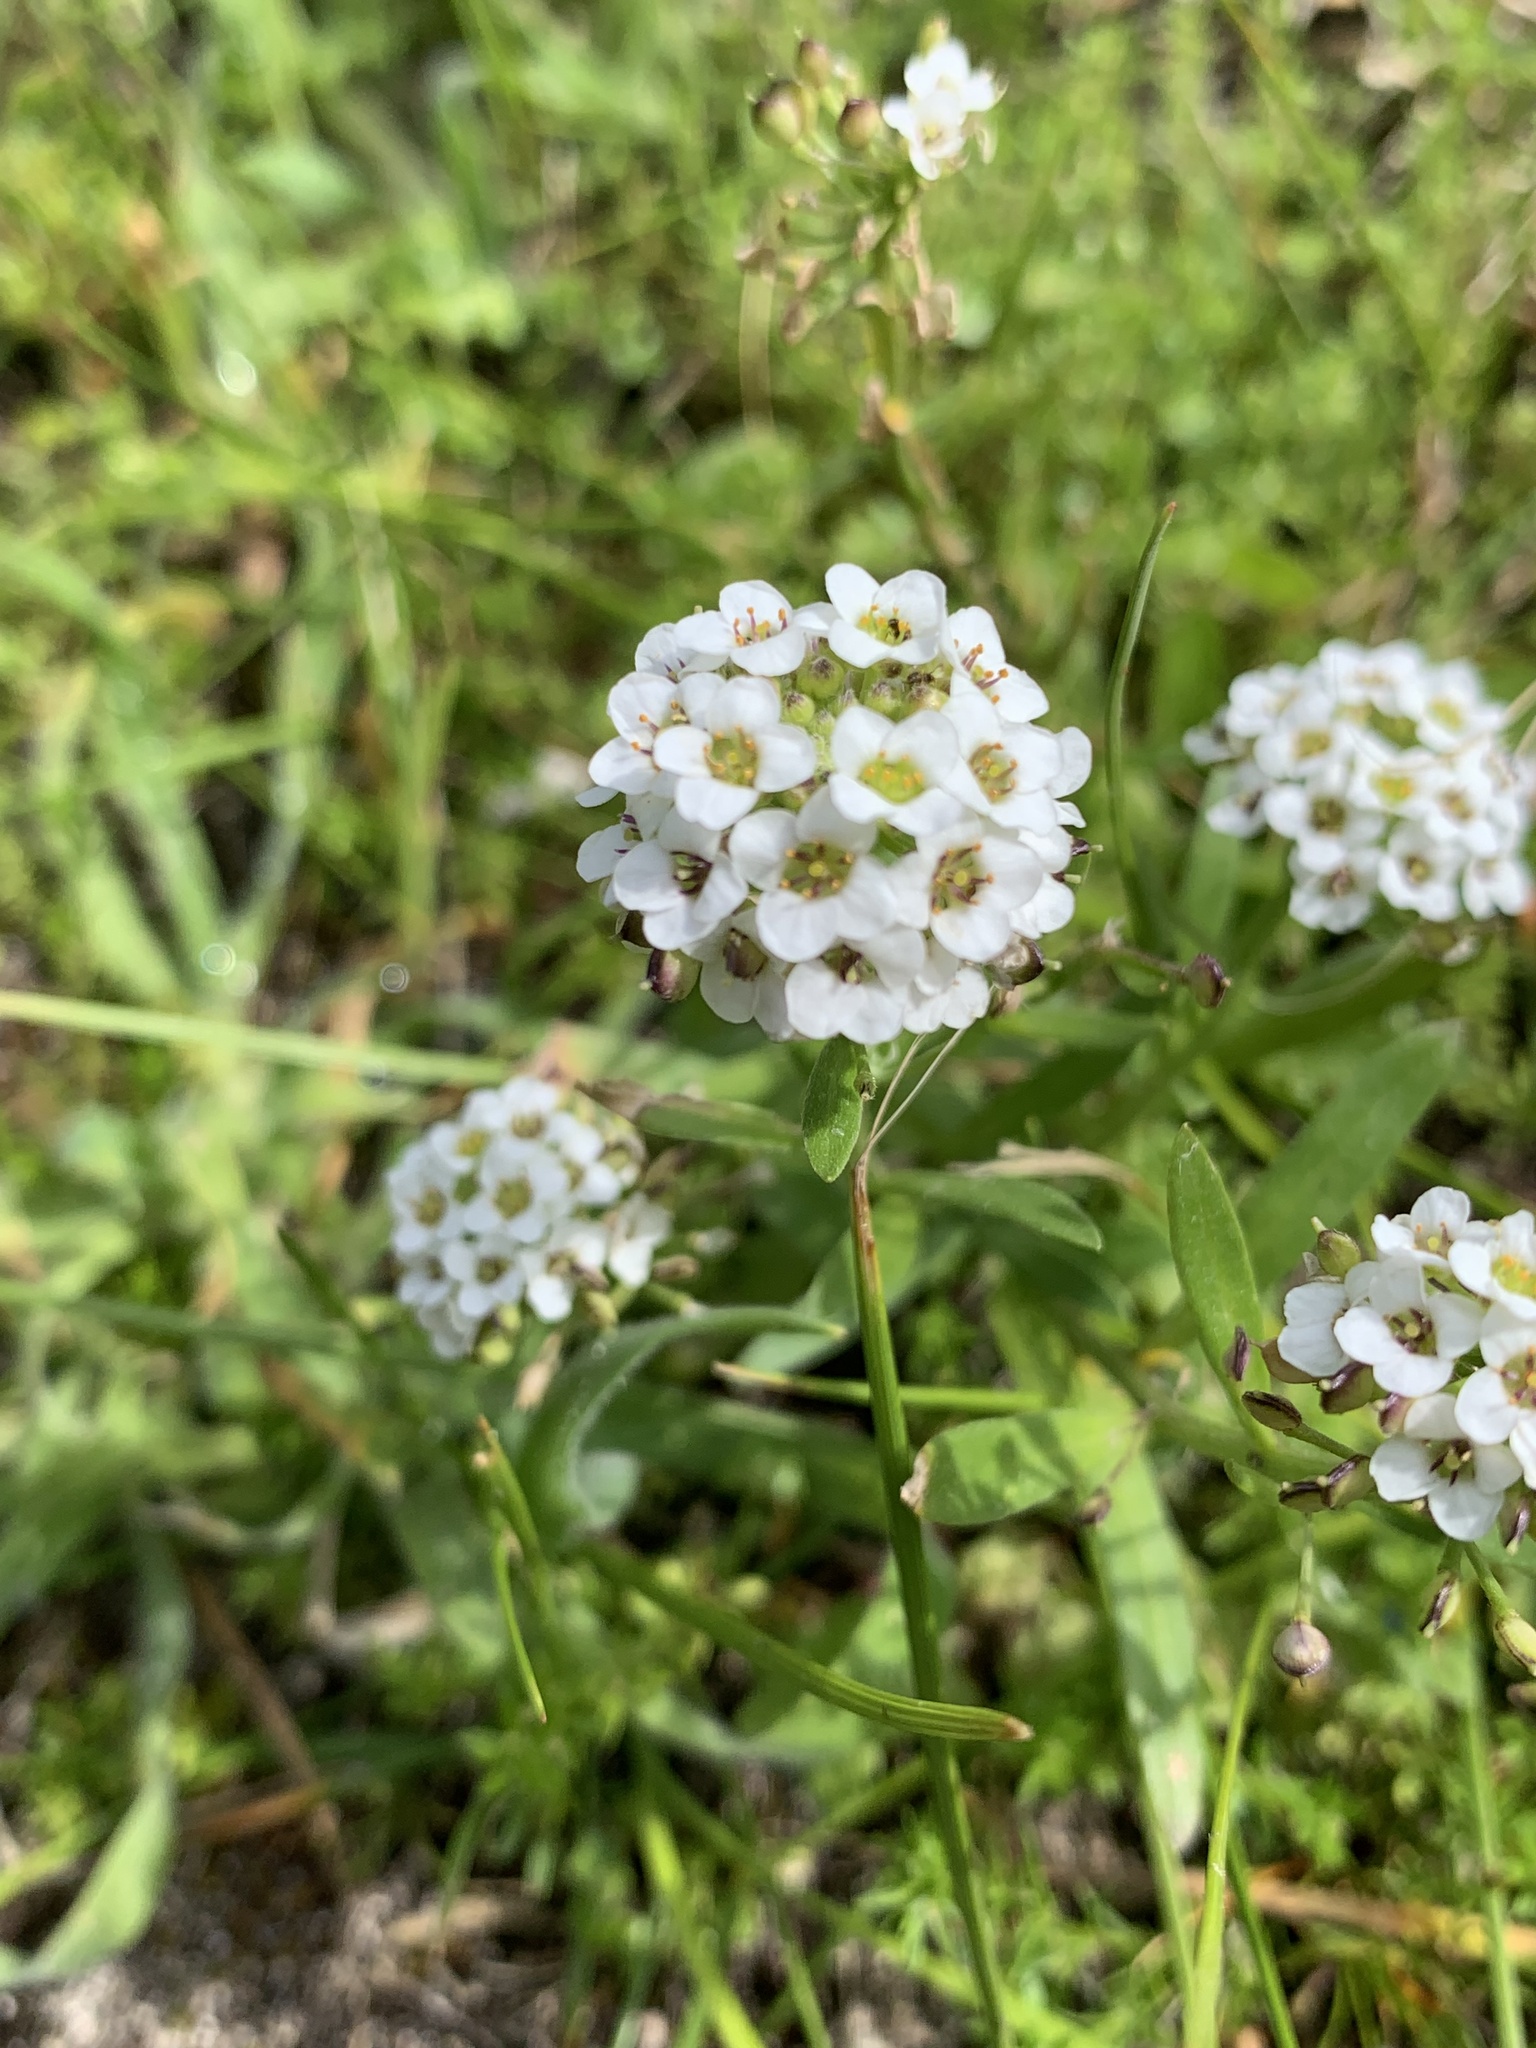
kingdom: Plantae
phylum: Tracheophyta
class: Magnoliopsida
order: Brassicales
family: Brassicaceae
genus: Lobularia
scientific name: Lobularia maritima
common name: Sweet alison
